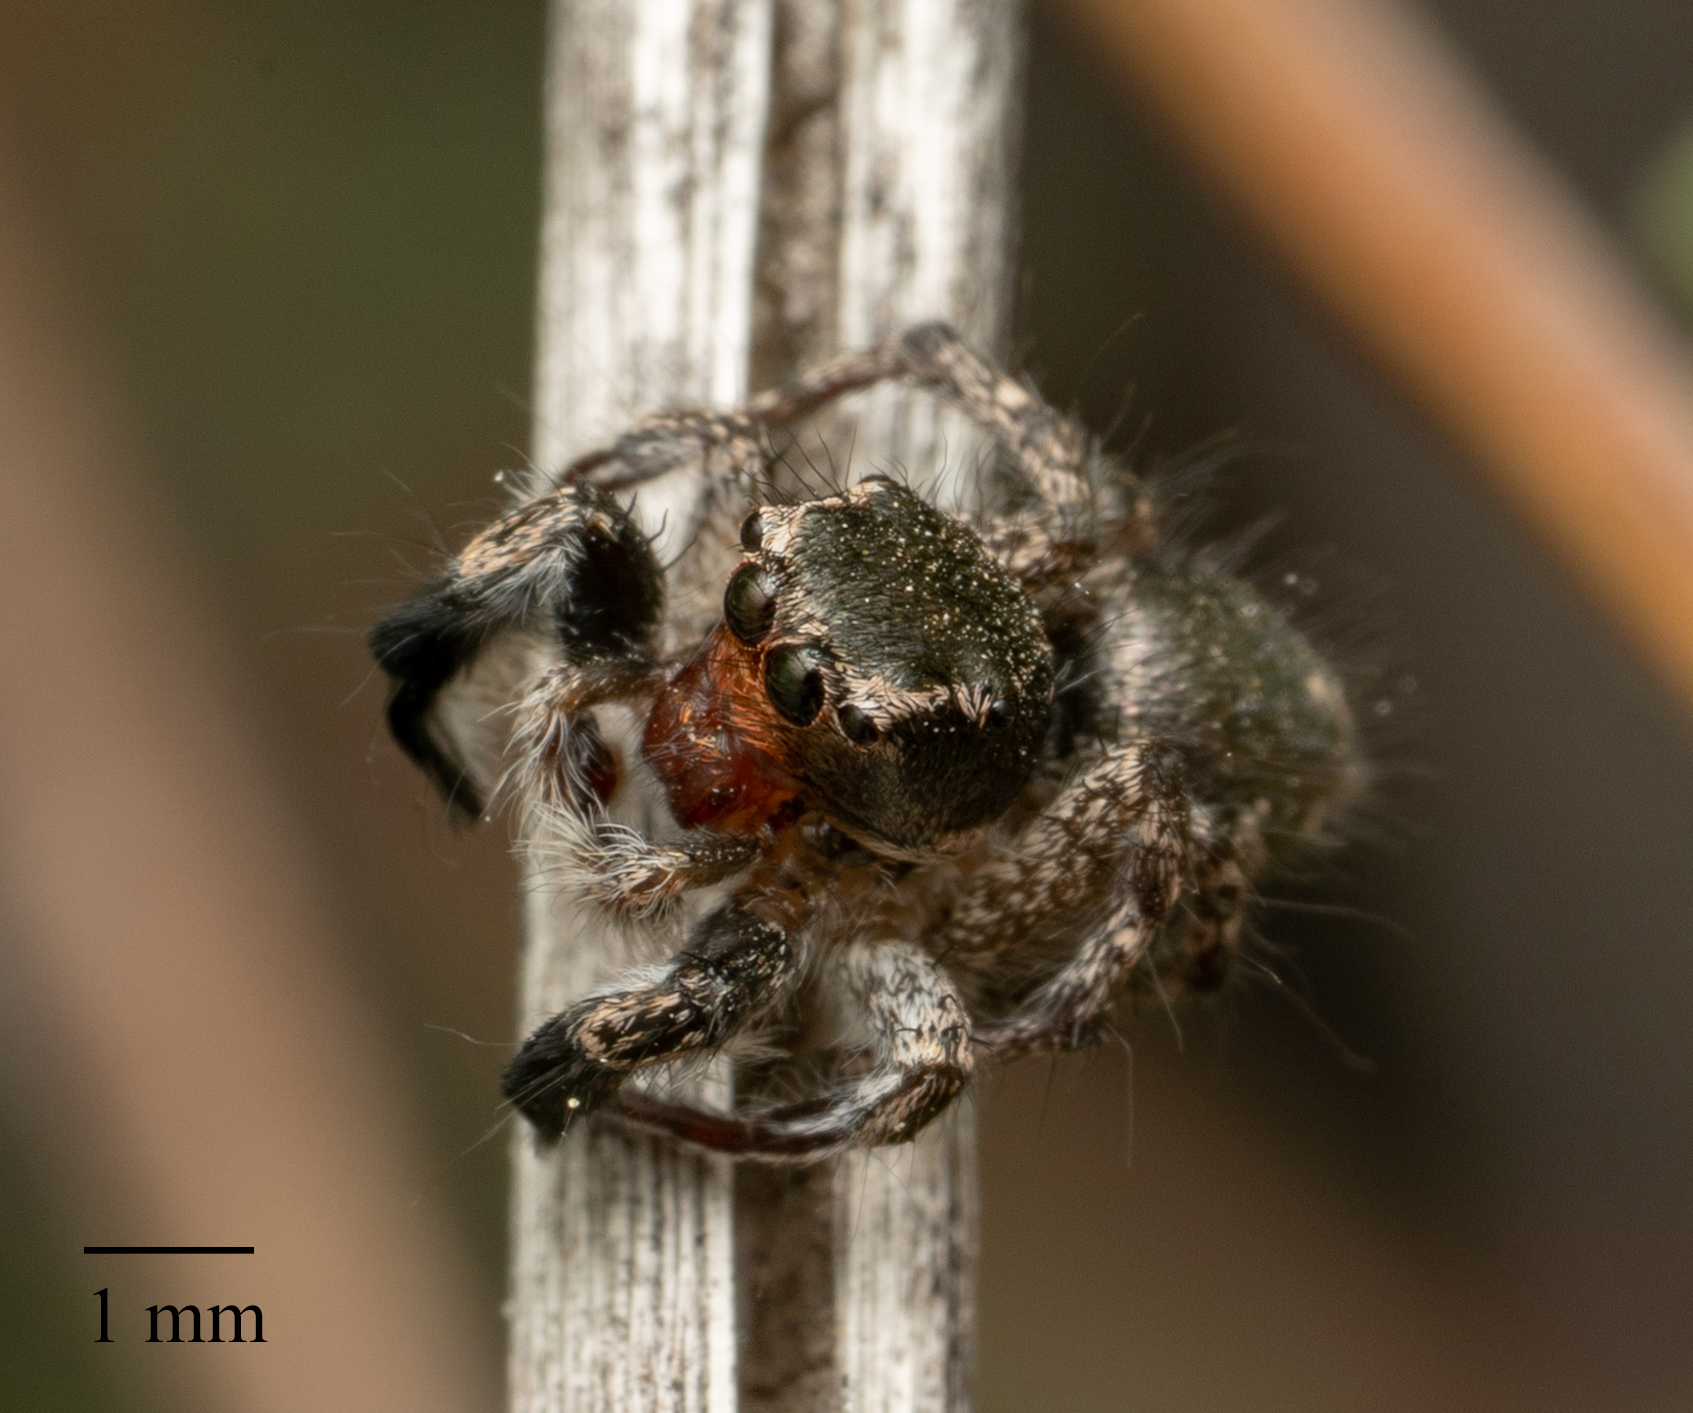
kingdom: Animalia
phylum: Arthropoda
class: Arachnida
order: Araneae
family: Salticidae
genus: Habronattus
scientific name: Habronattus hirsutus
